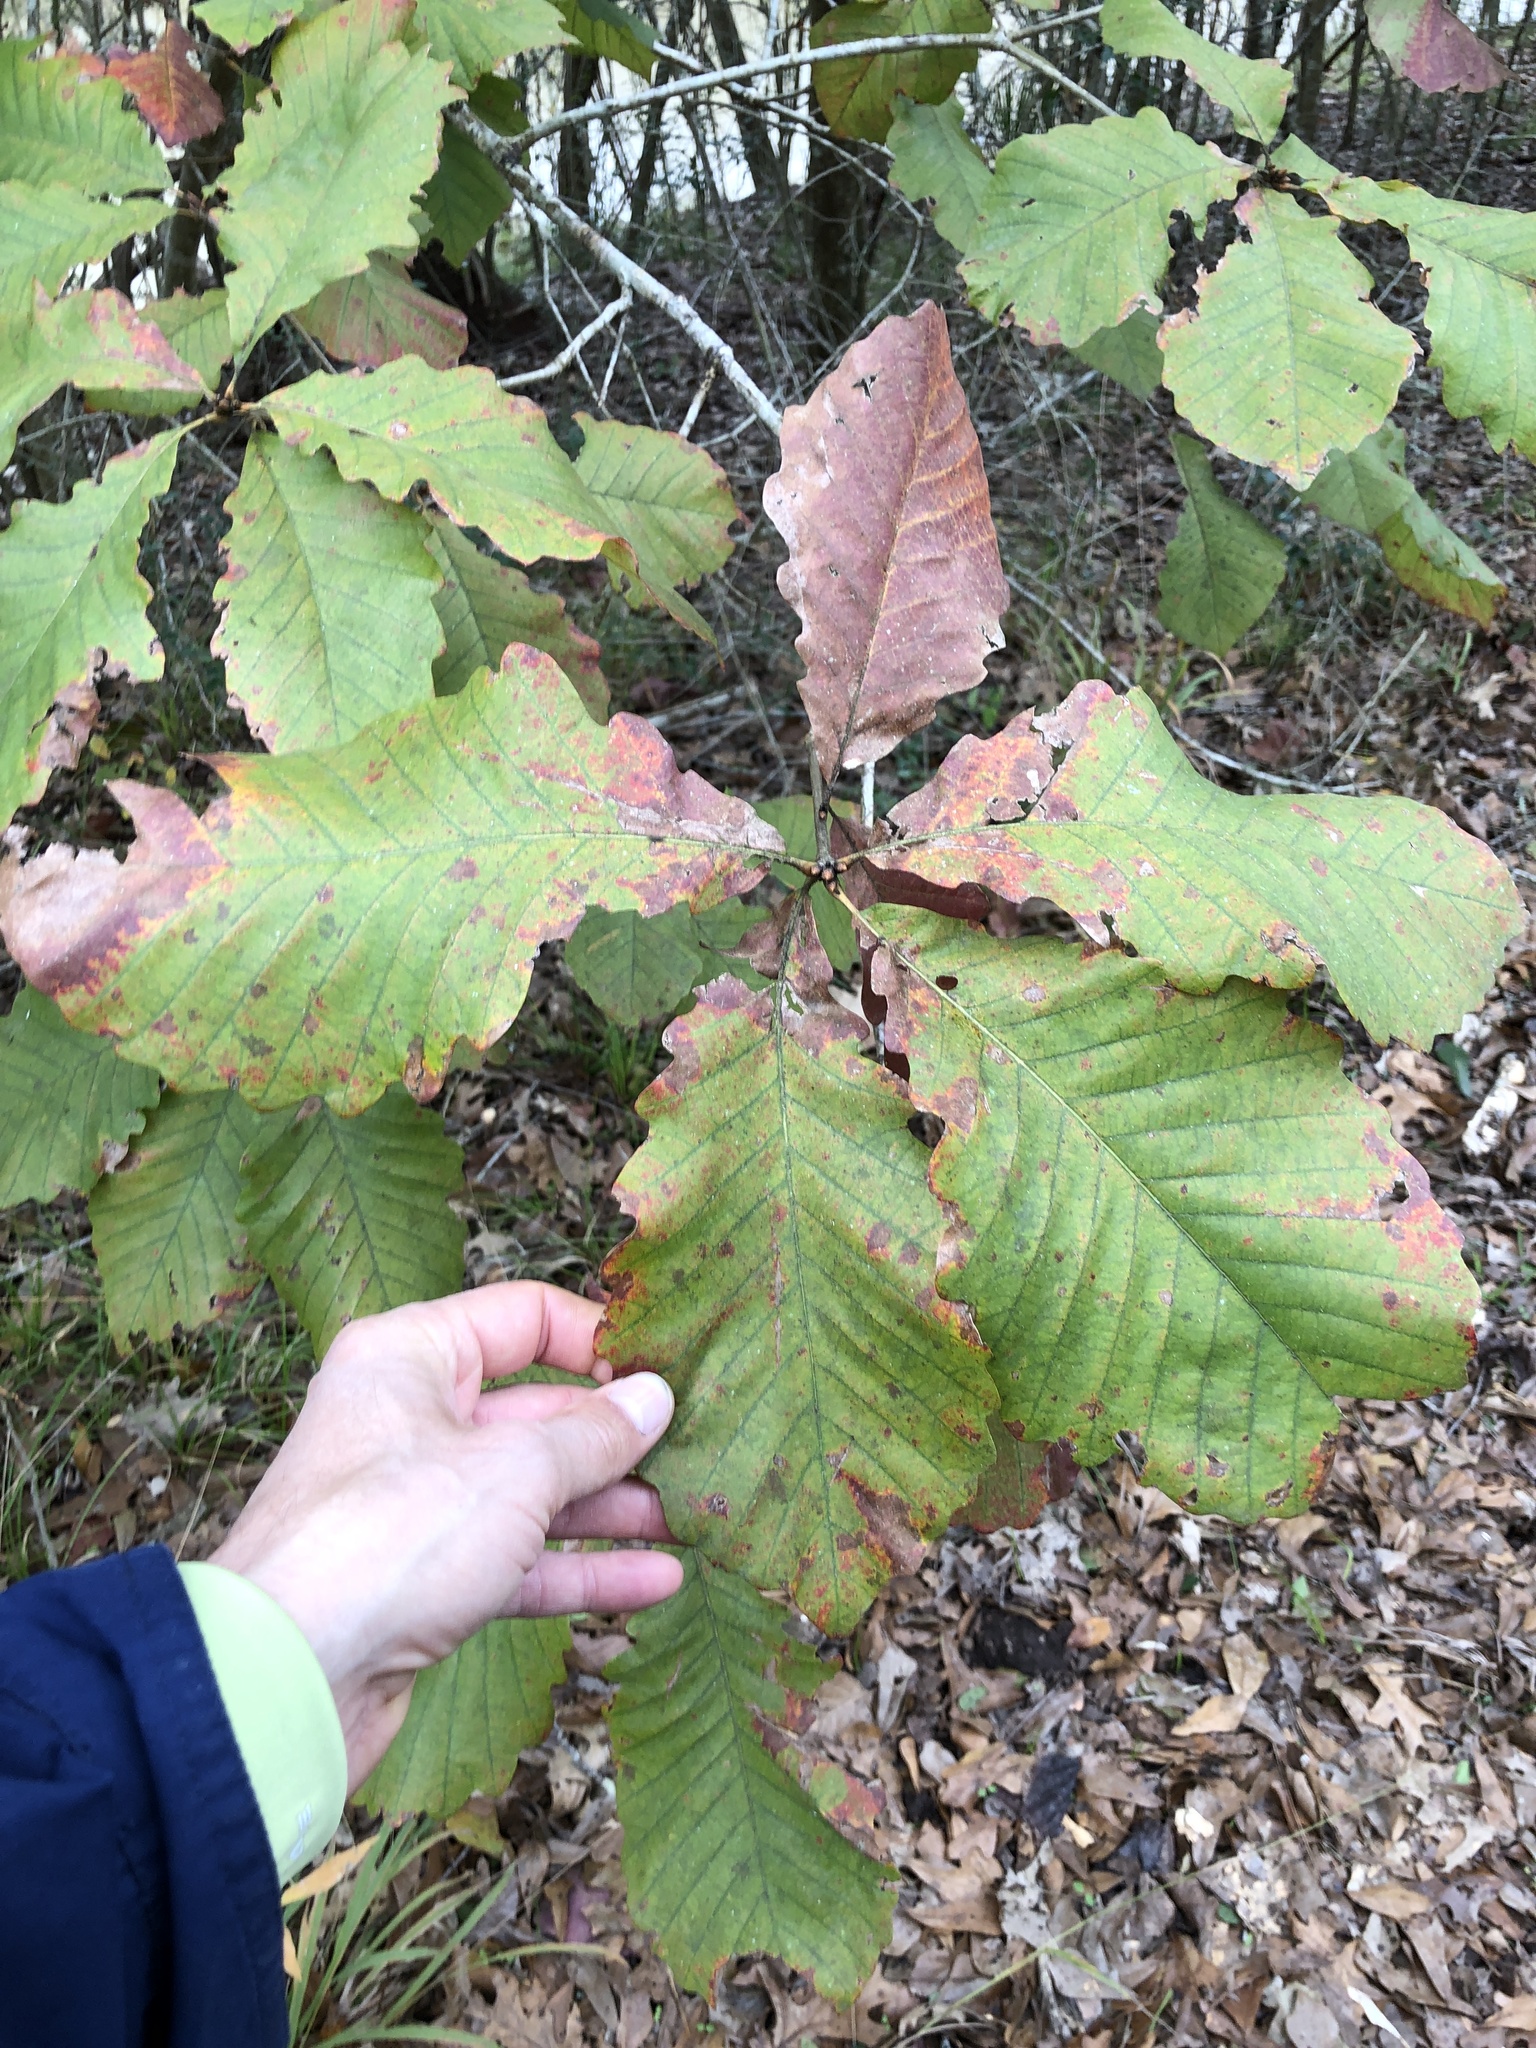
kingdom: Plantae
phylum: Tracheophyta
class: Magnoliopsida
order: Fagales
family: Fagaceae
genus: Quercus
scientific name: Quercus michauxii
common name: Swamp chestnut oak
